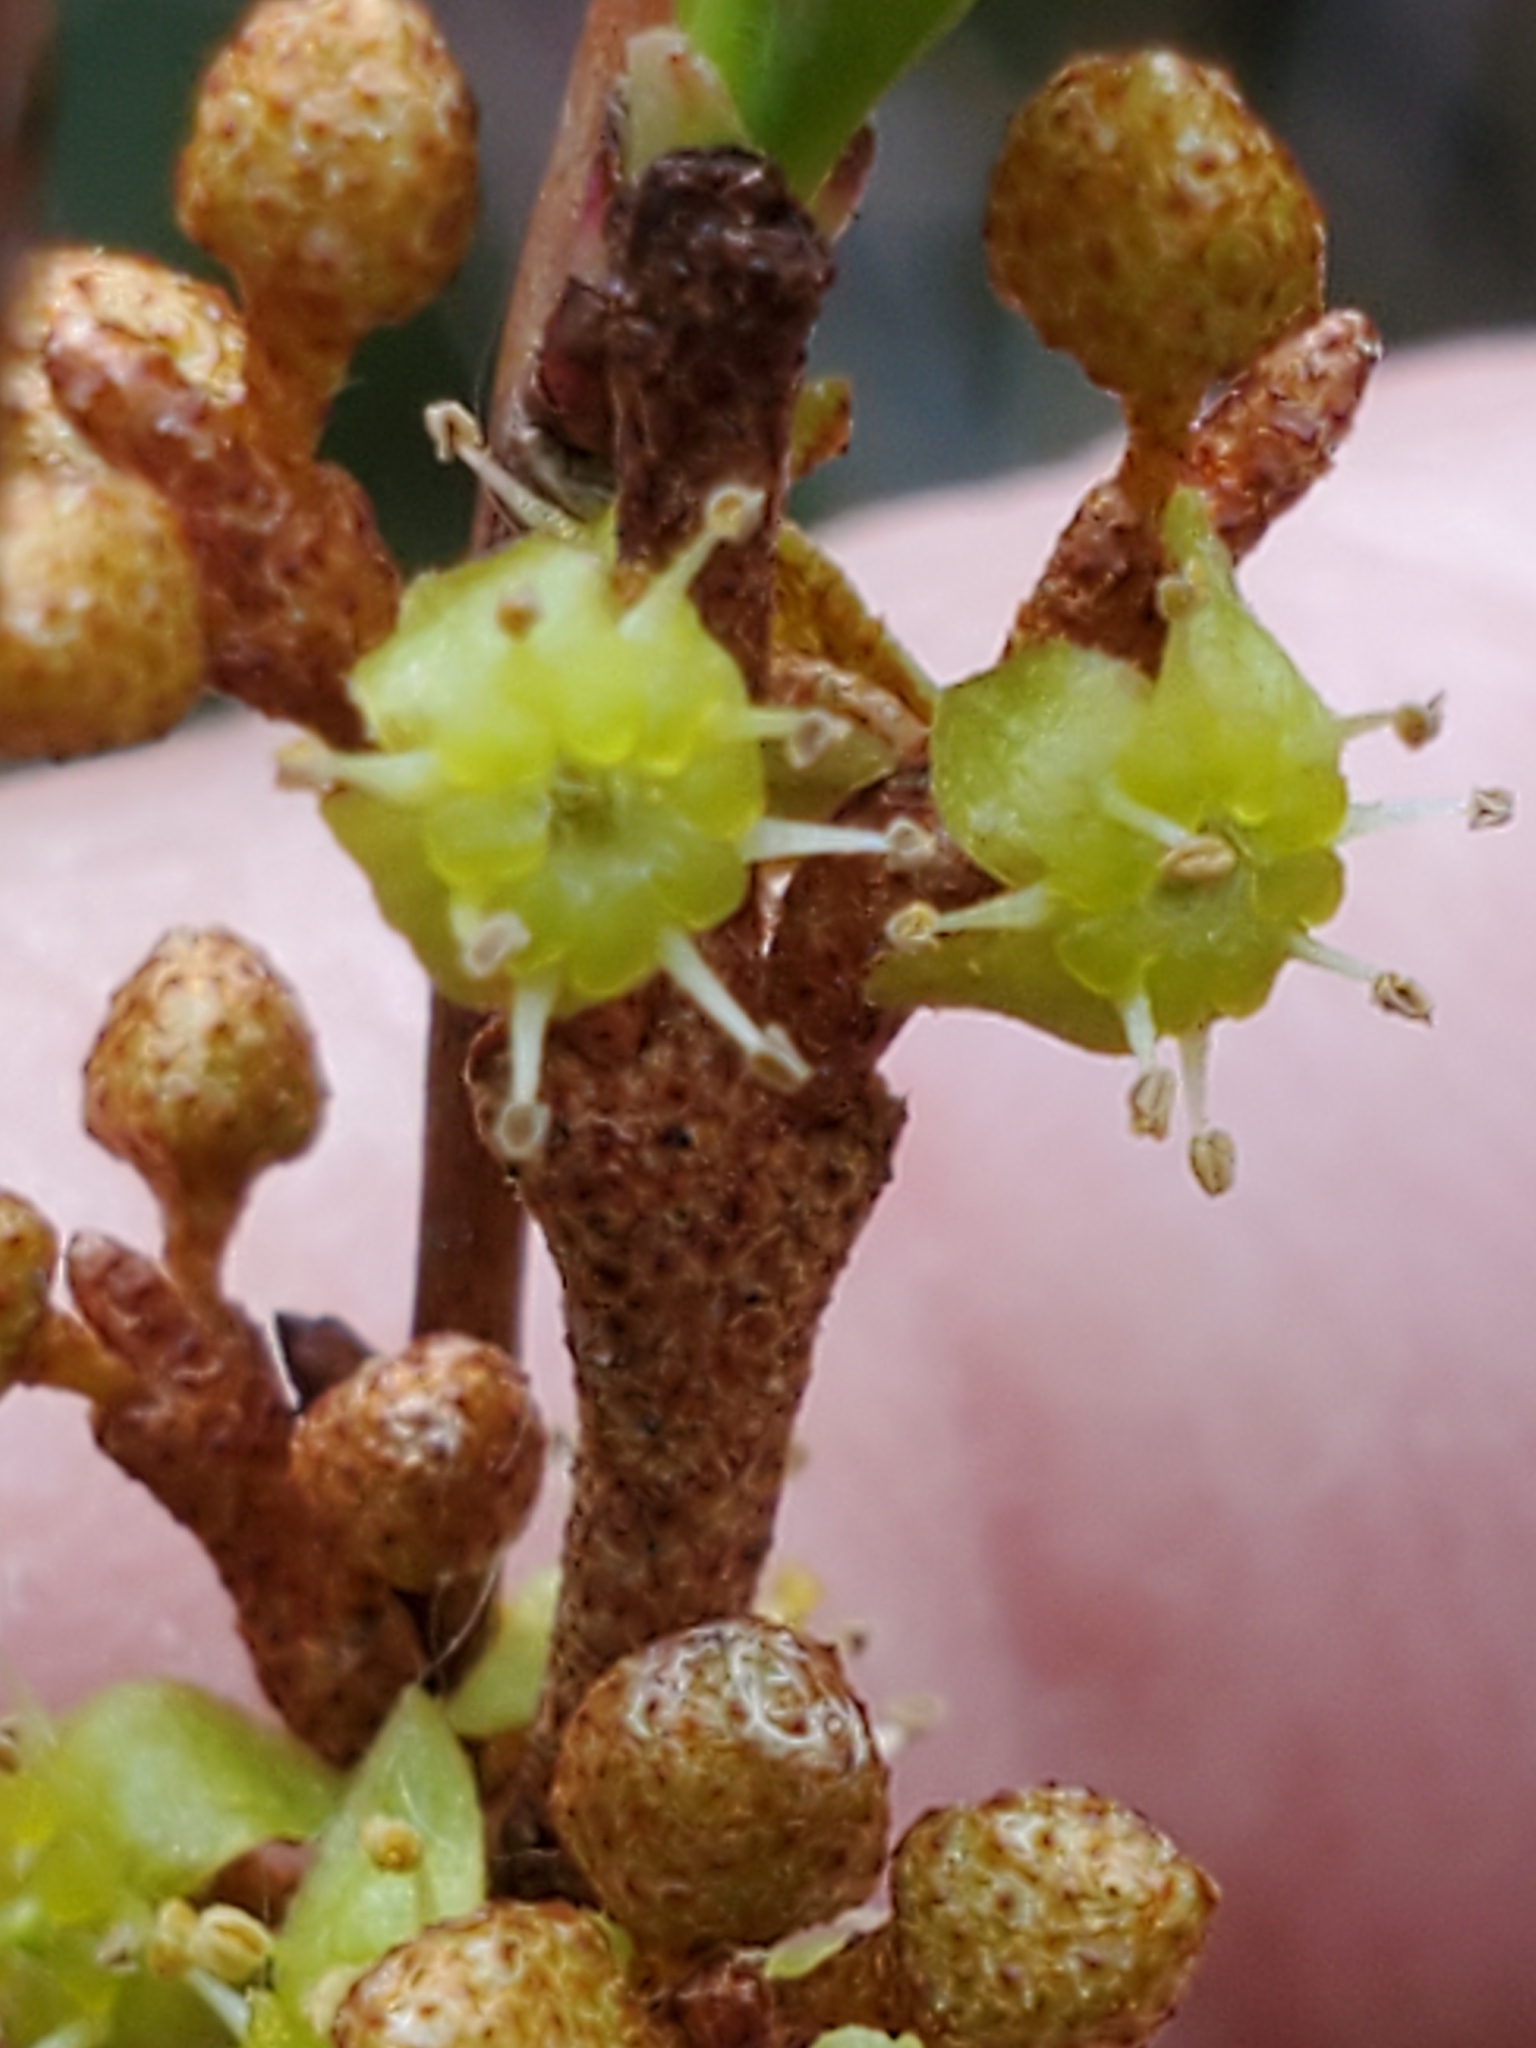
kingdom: Plantae
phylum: Tracheophyta
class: Magnoliopsida
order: Rosales
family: Elaeagnaceae
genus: Shepherdia
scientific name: Shepherdia canadensis
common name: Soapberry
